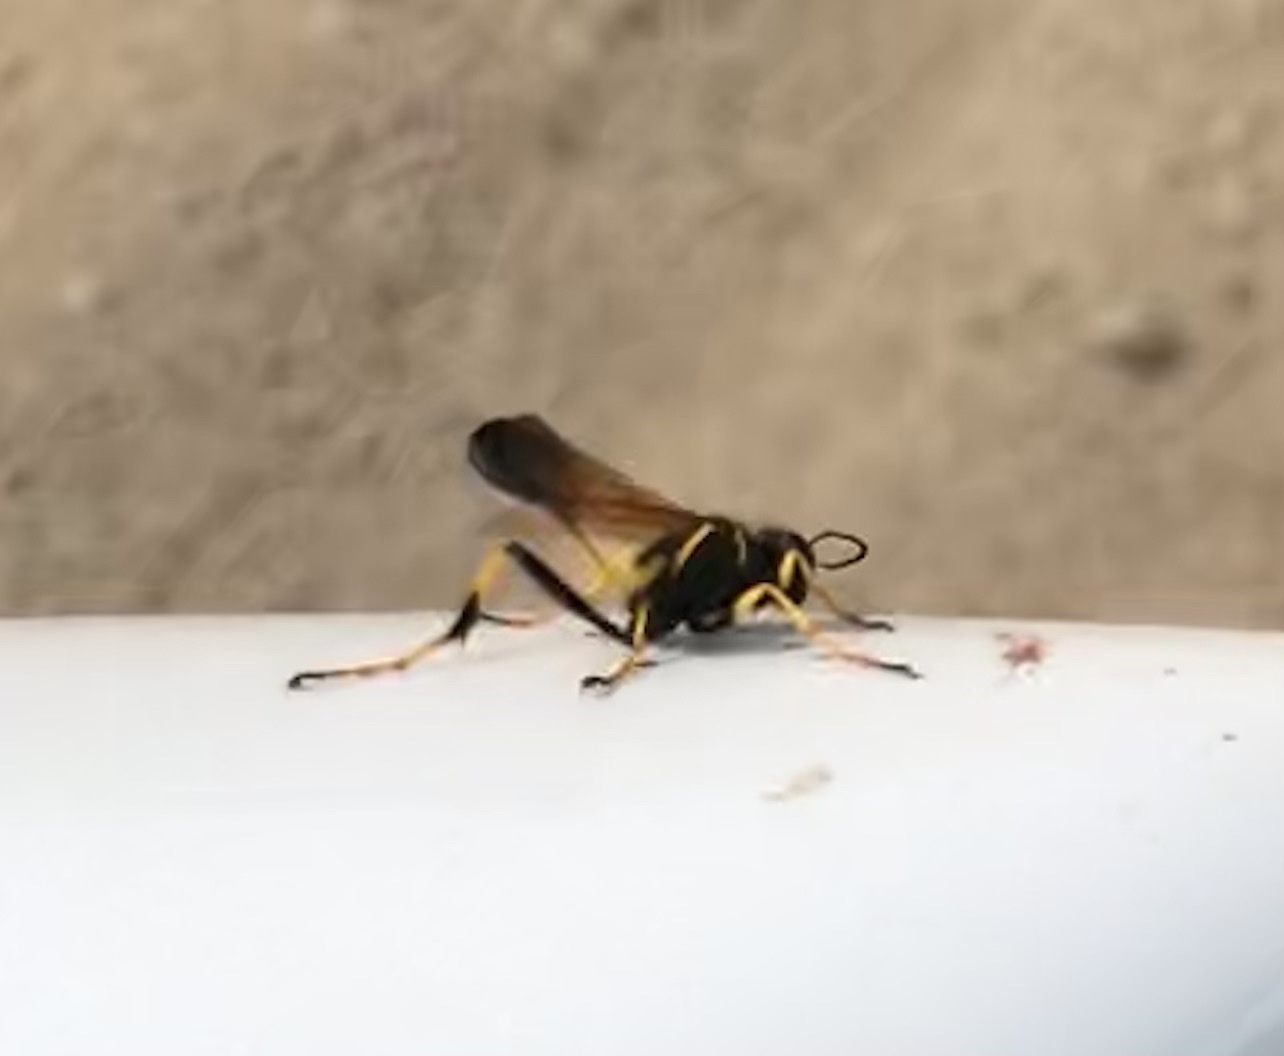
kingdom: Animalia
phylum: Arthropoda
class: Insecta
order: Hymenoptera
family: Sphecidae
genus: Sceliphron
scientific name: Sceliphron caementarium
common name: Mud dauber
